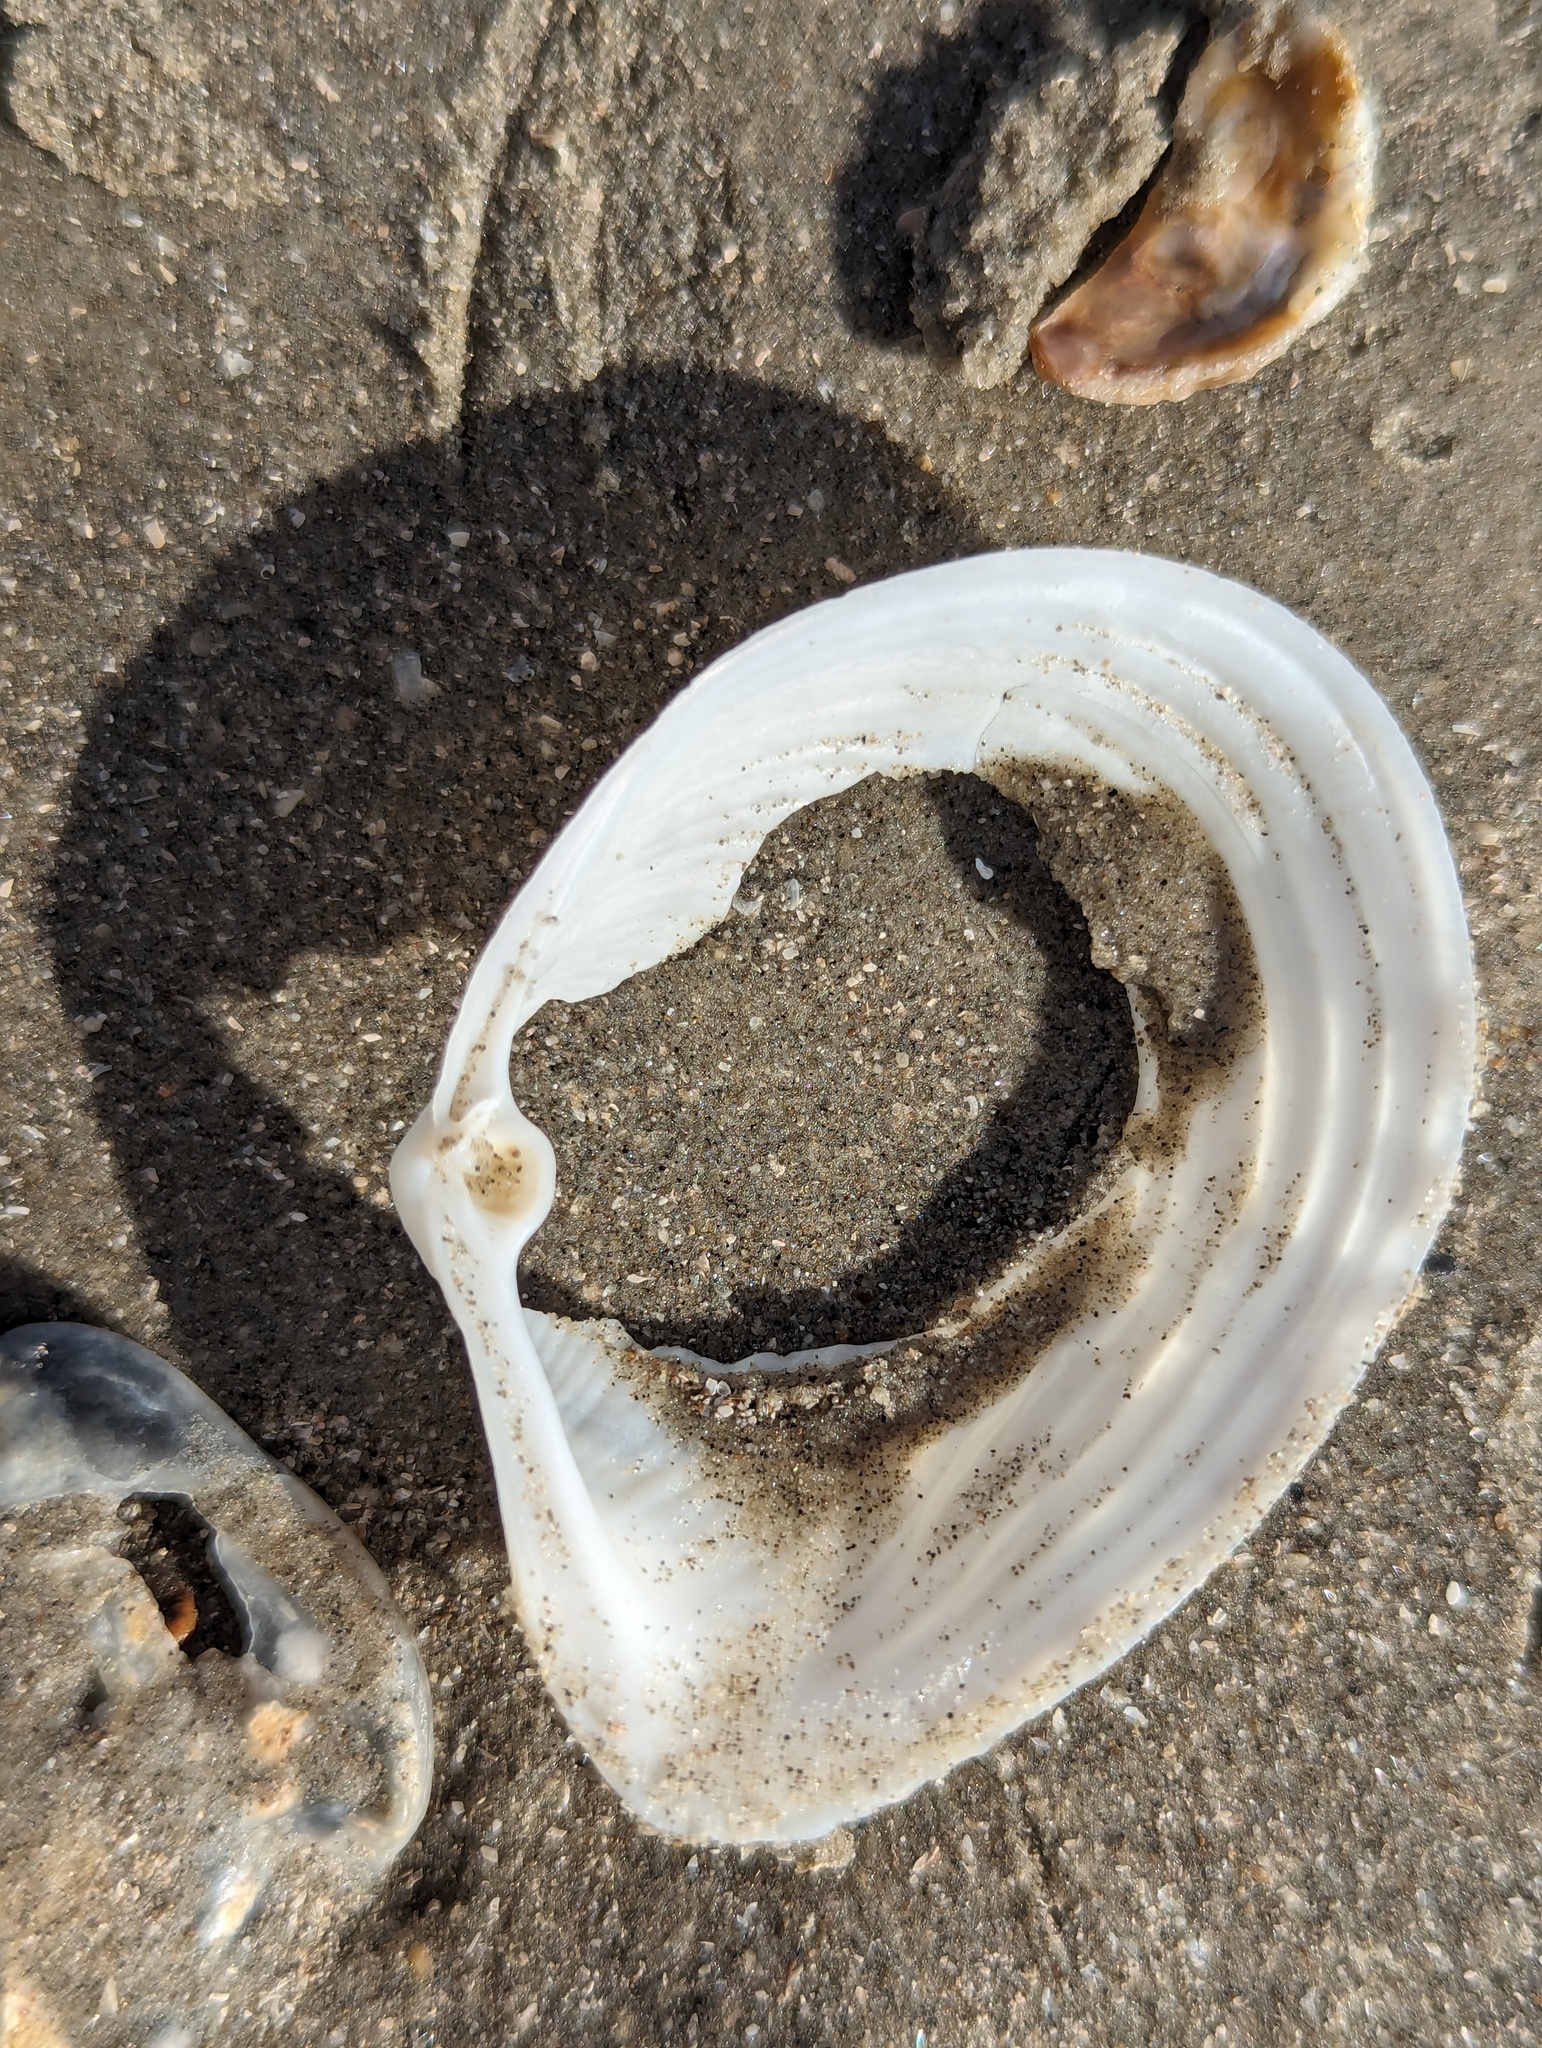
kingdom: Animalia
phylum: Mollusca
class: Bivalvia
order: Venerida
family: Anatinellidae
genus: Raeta
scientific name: Raeta plicatella
